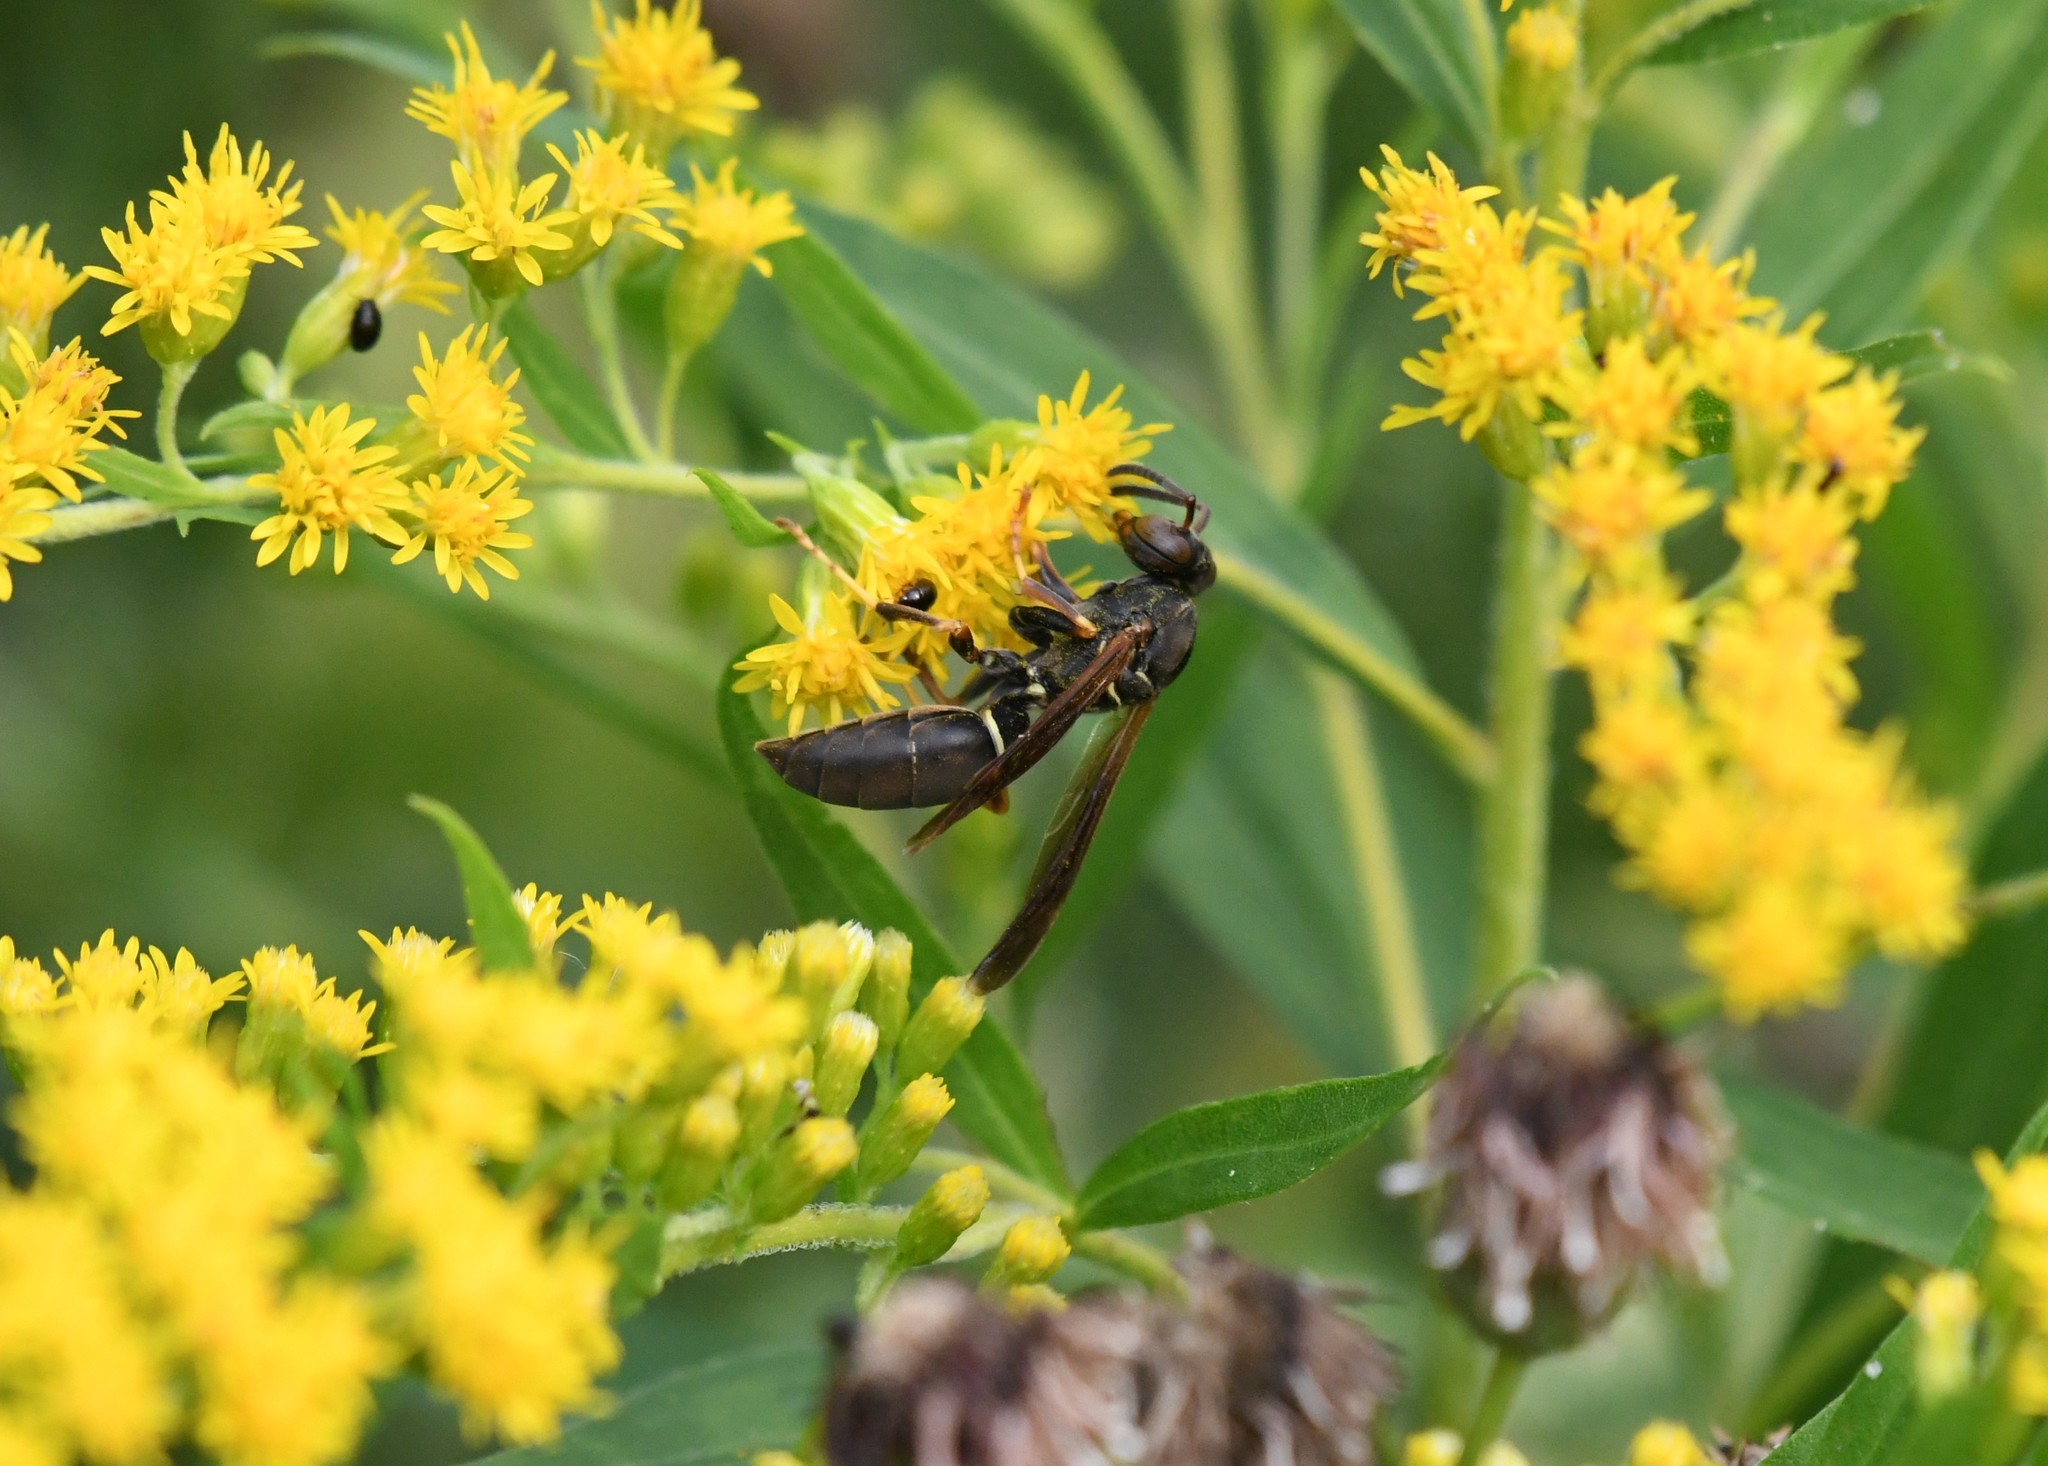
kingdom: Animalia
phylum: Arthropoda
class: Insecta
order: Hymenoptera
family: Eumenidae
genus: Polistes
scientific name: Polistes fuscatus
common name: Dark paper wasp
